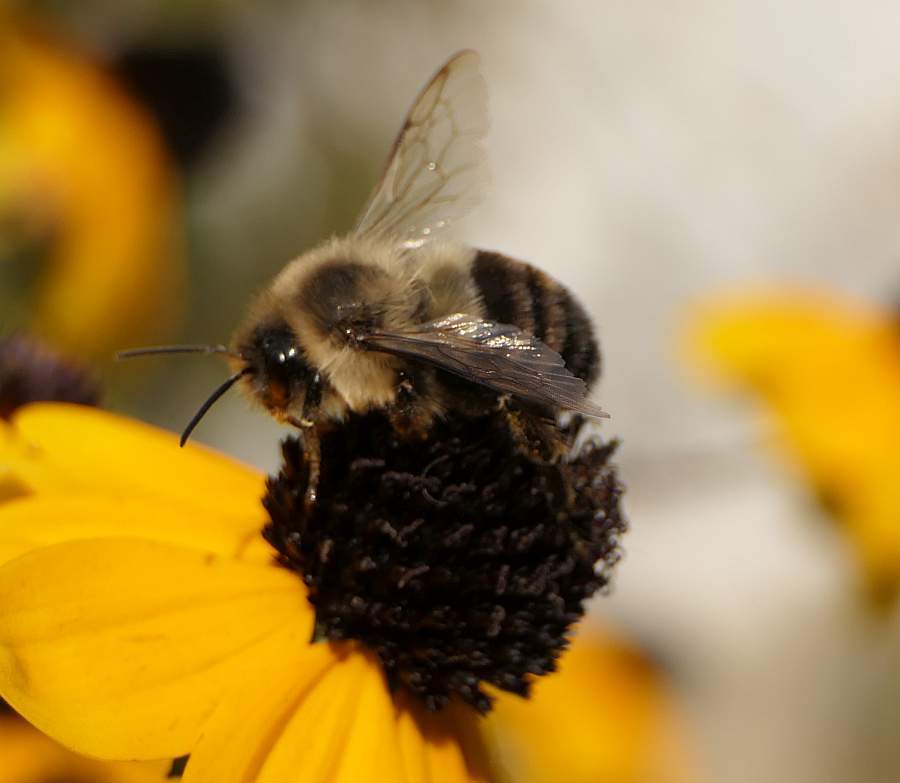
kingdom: Animalia
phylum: Arthropoda
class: Insecta
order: Hymenoptera
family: Apidae
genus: Bombus
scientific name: Bombus impatiens
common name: Common eastern bumble bee
